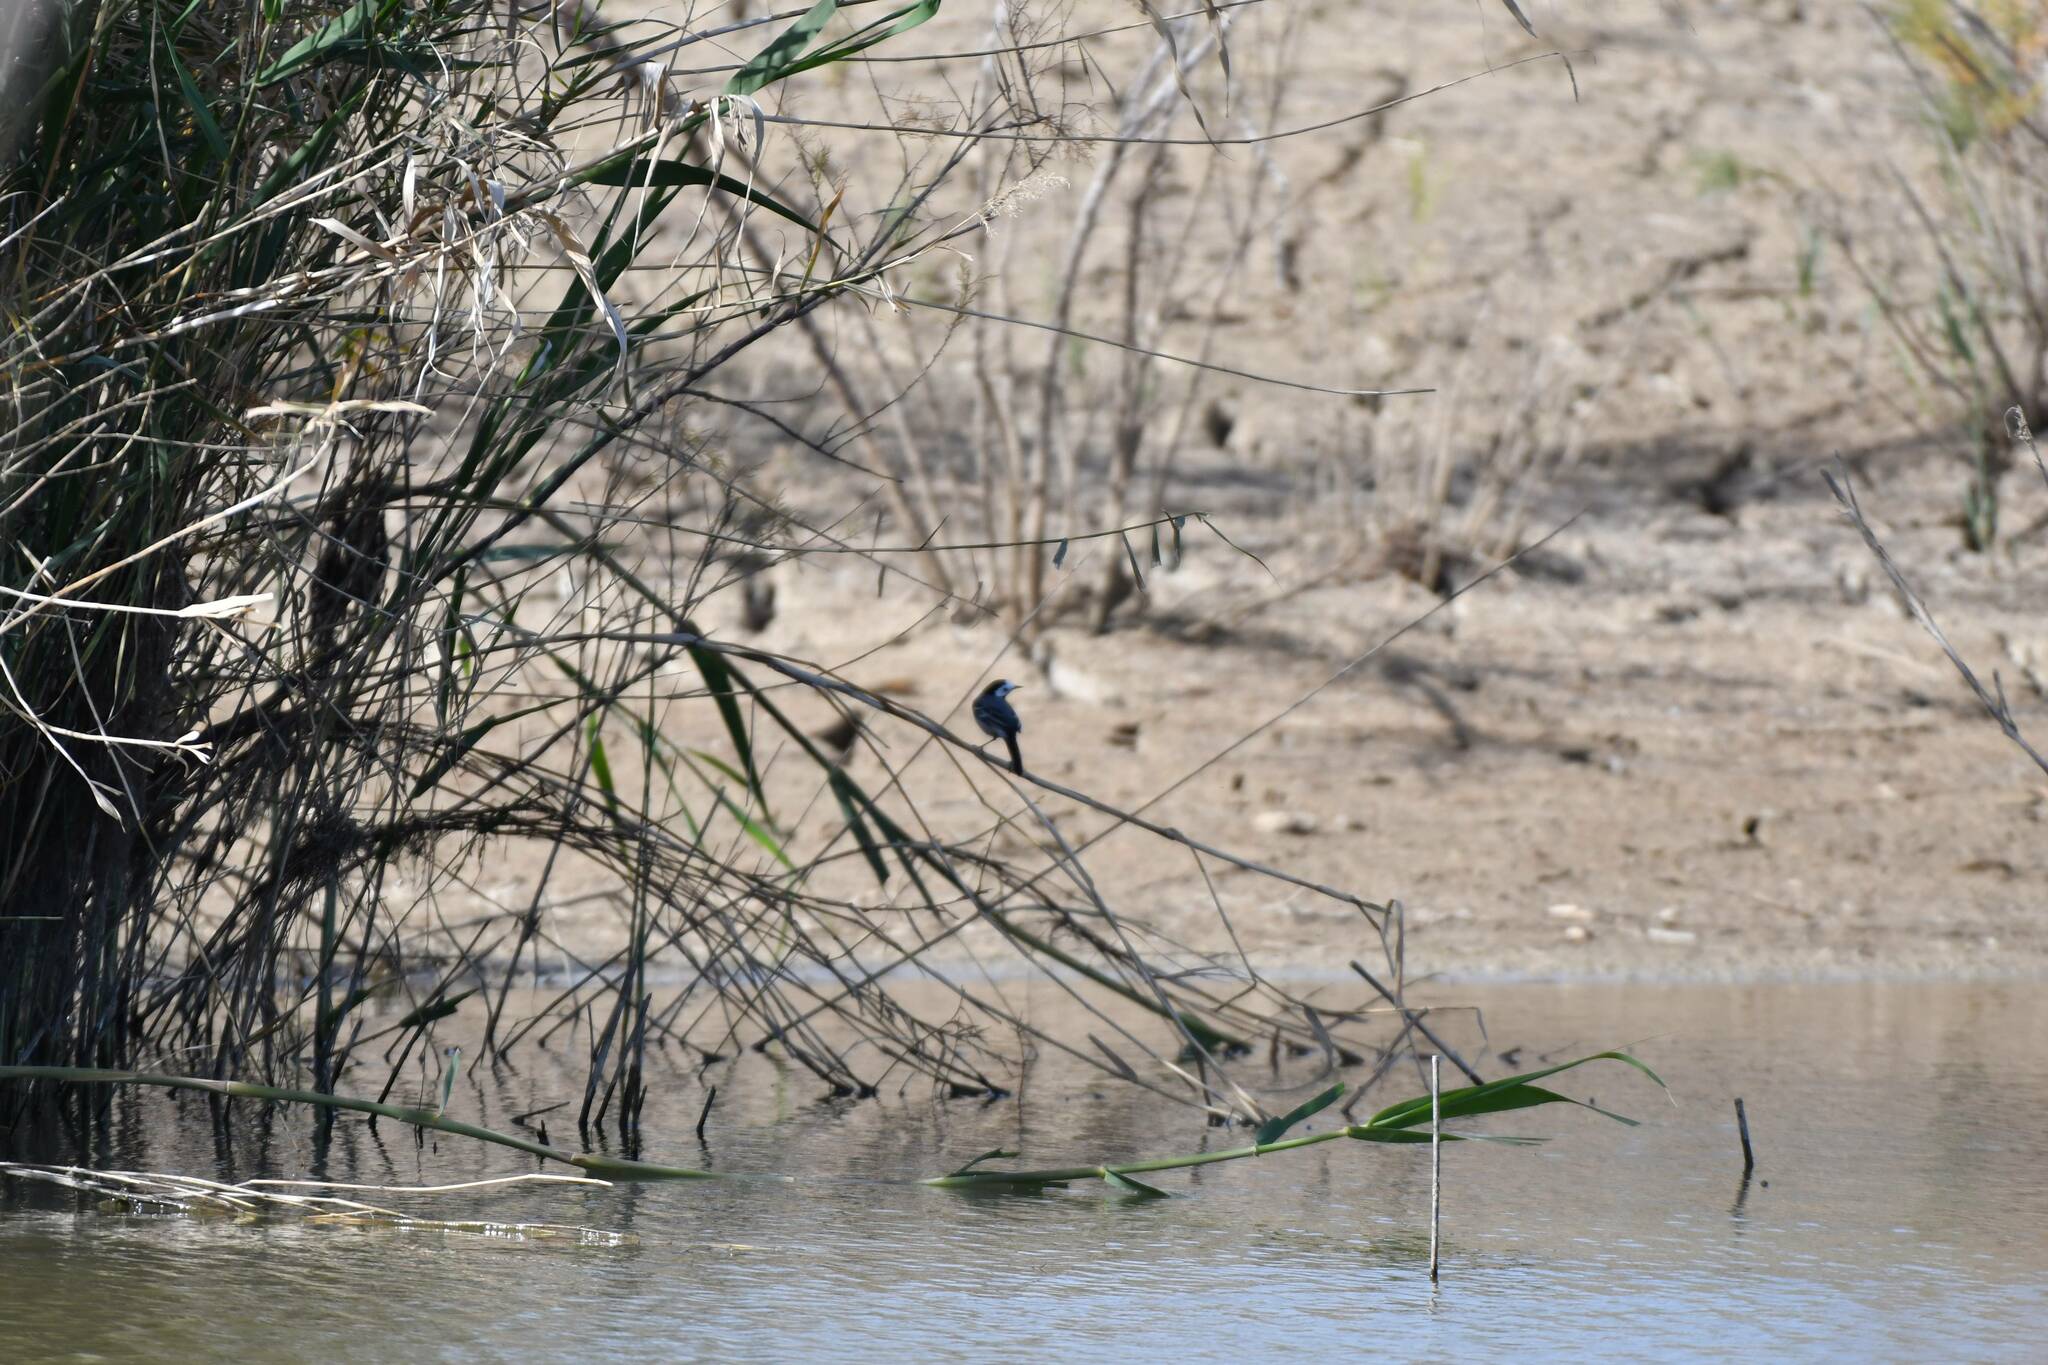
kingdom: Animalia
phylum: Chordata
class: Aves
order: Passeriformes
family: Motacillidae
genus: Motacilla
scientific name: Motacilla alba
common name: White wagtail
